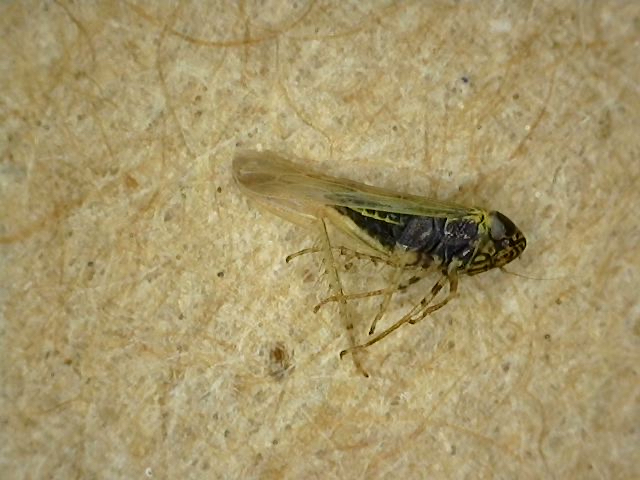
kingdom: Animalia
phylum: Arthropoda
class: Insecta
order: Hemiptera
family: Cicadellidae
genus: Graminella
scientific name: Graminella nigrifrons
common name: Blackfaced leafhopper
